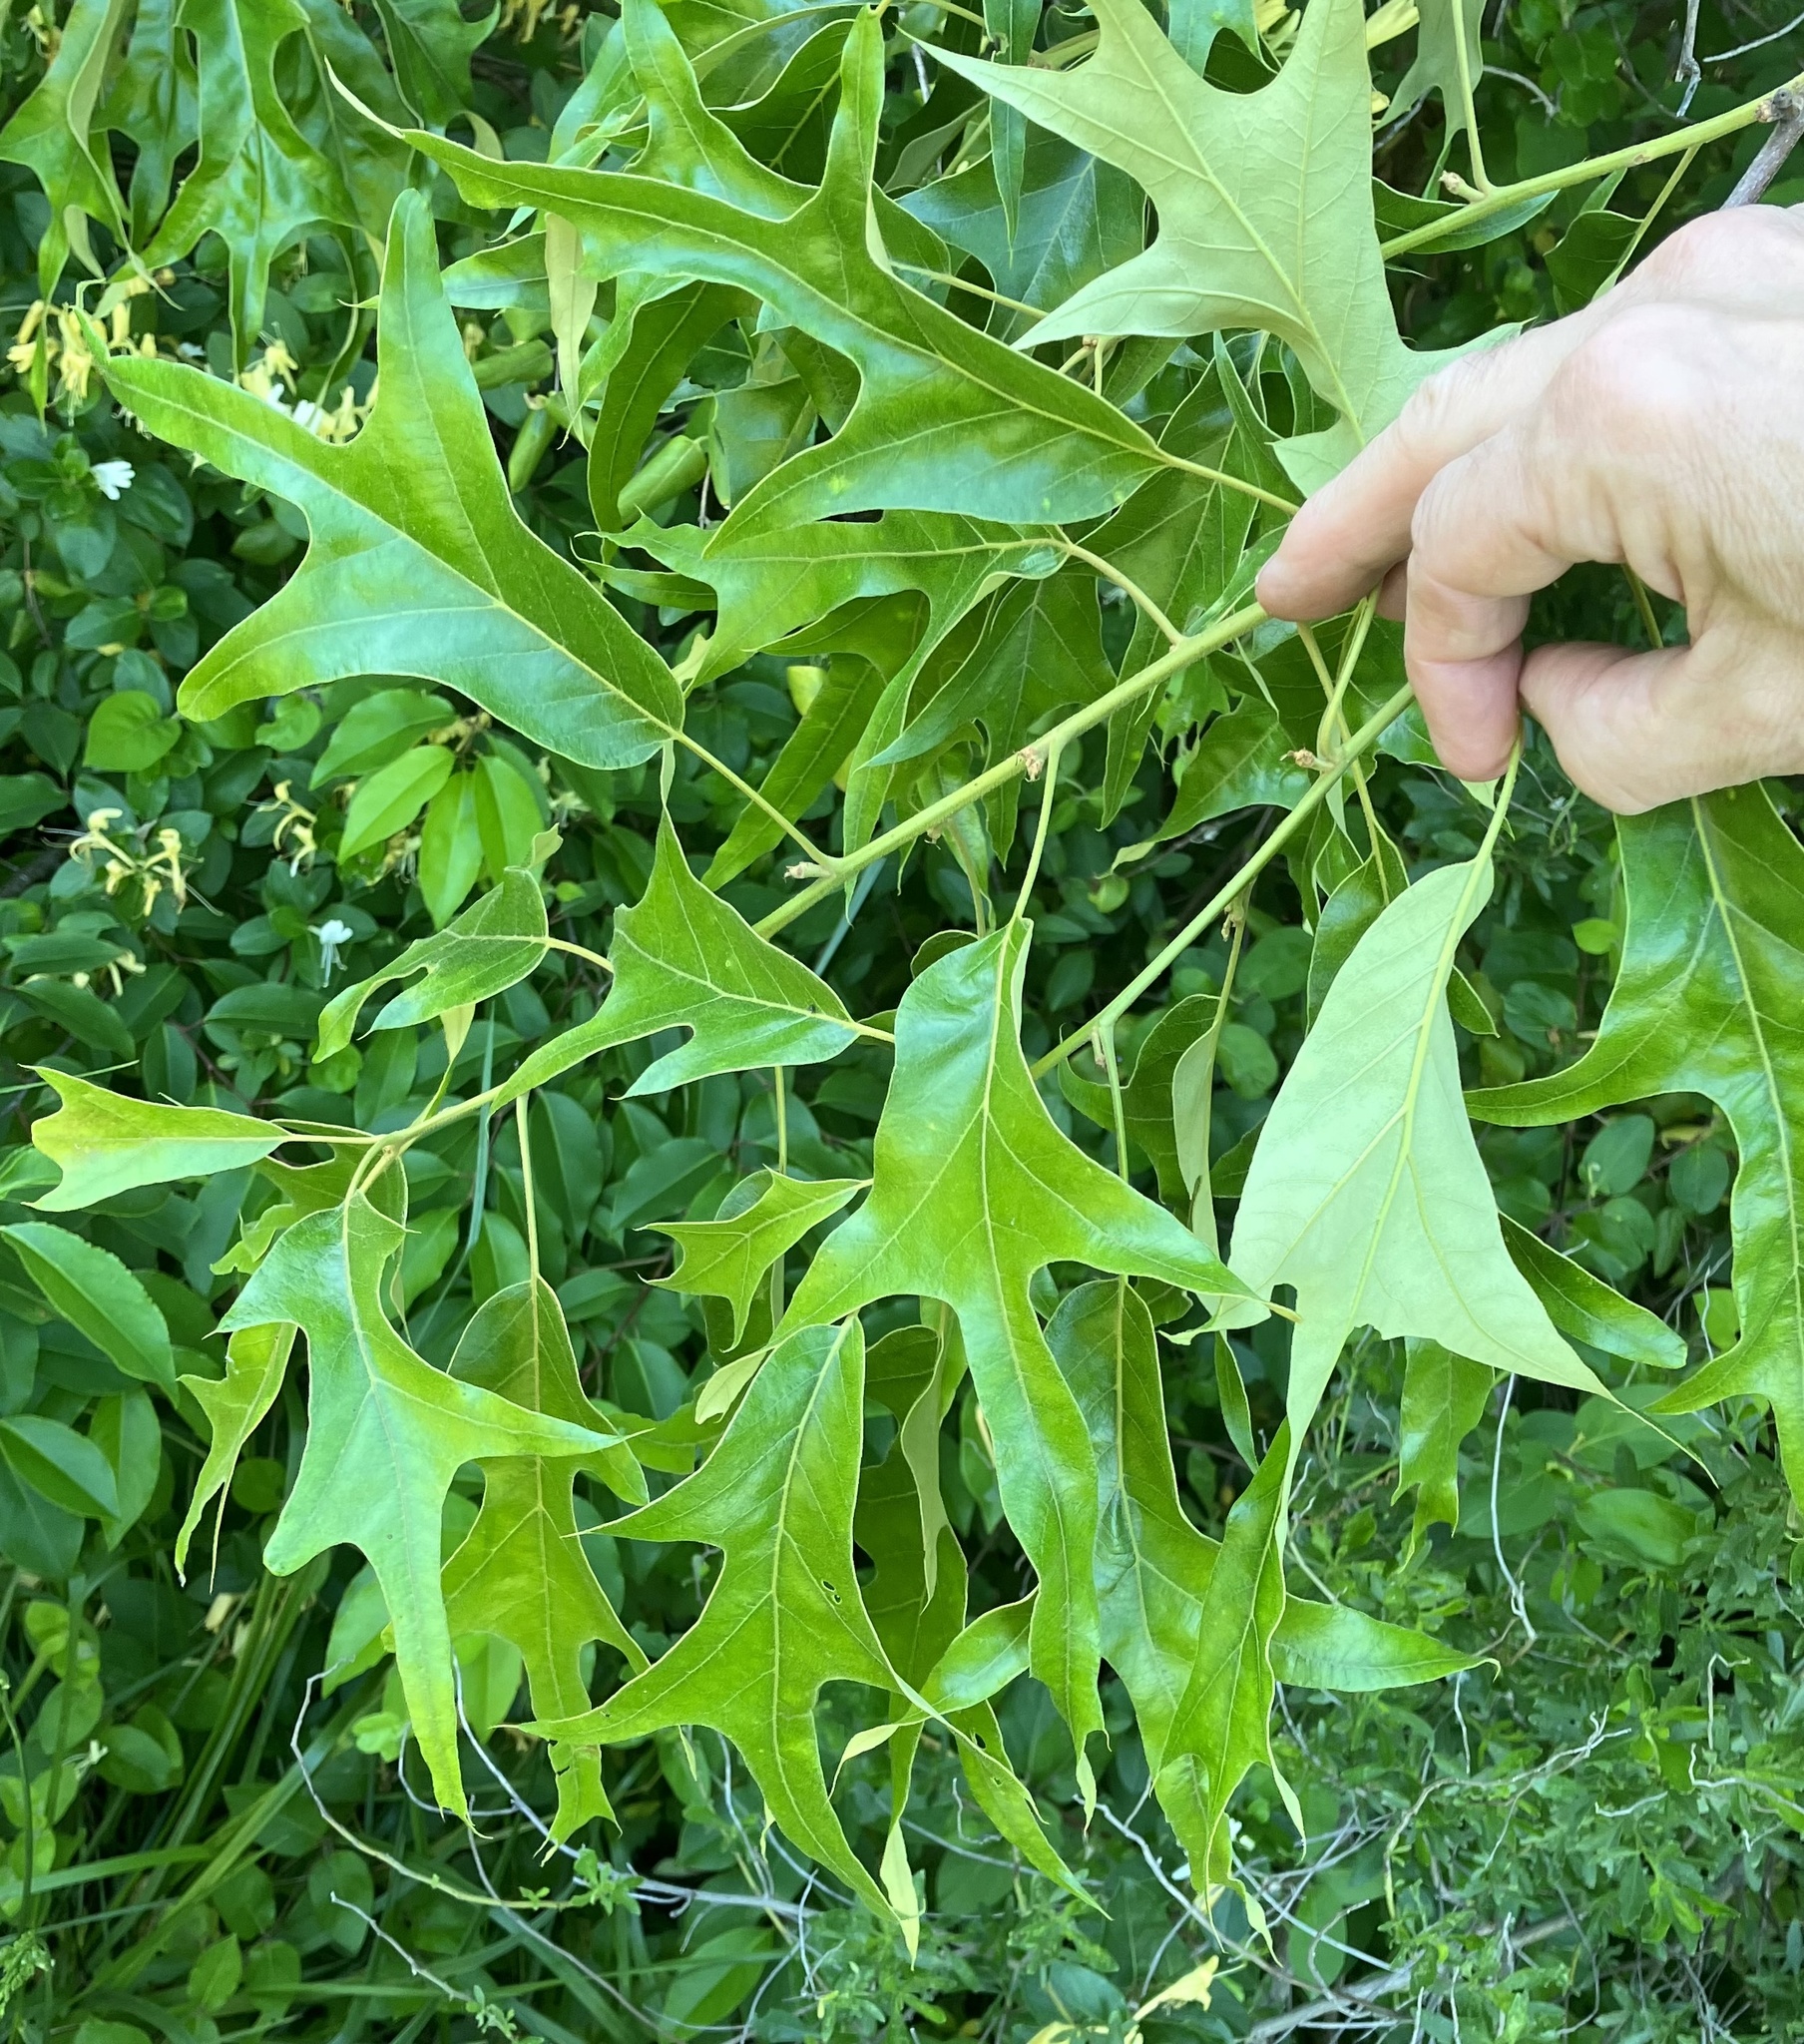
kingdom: Plantae
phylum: Tracheophyta
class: Magnoliopsida
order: Fagales
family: Fagaceae
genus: Quercus
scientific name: Quercus falcata
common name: Southern red oak
